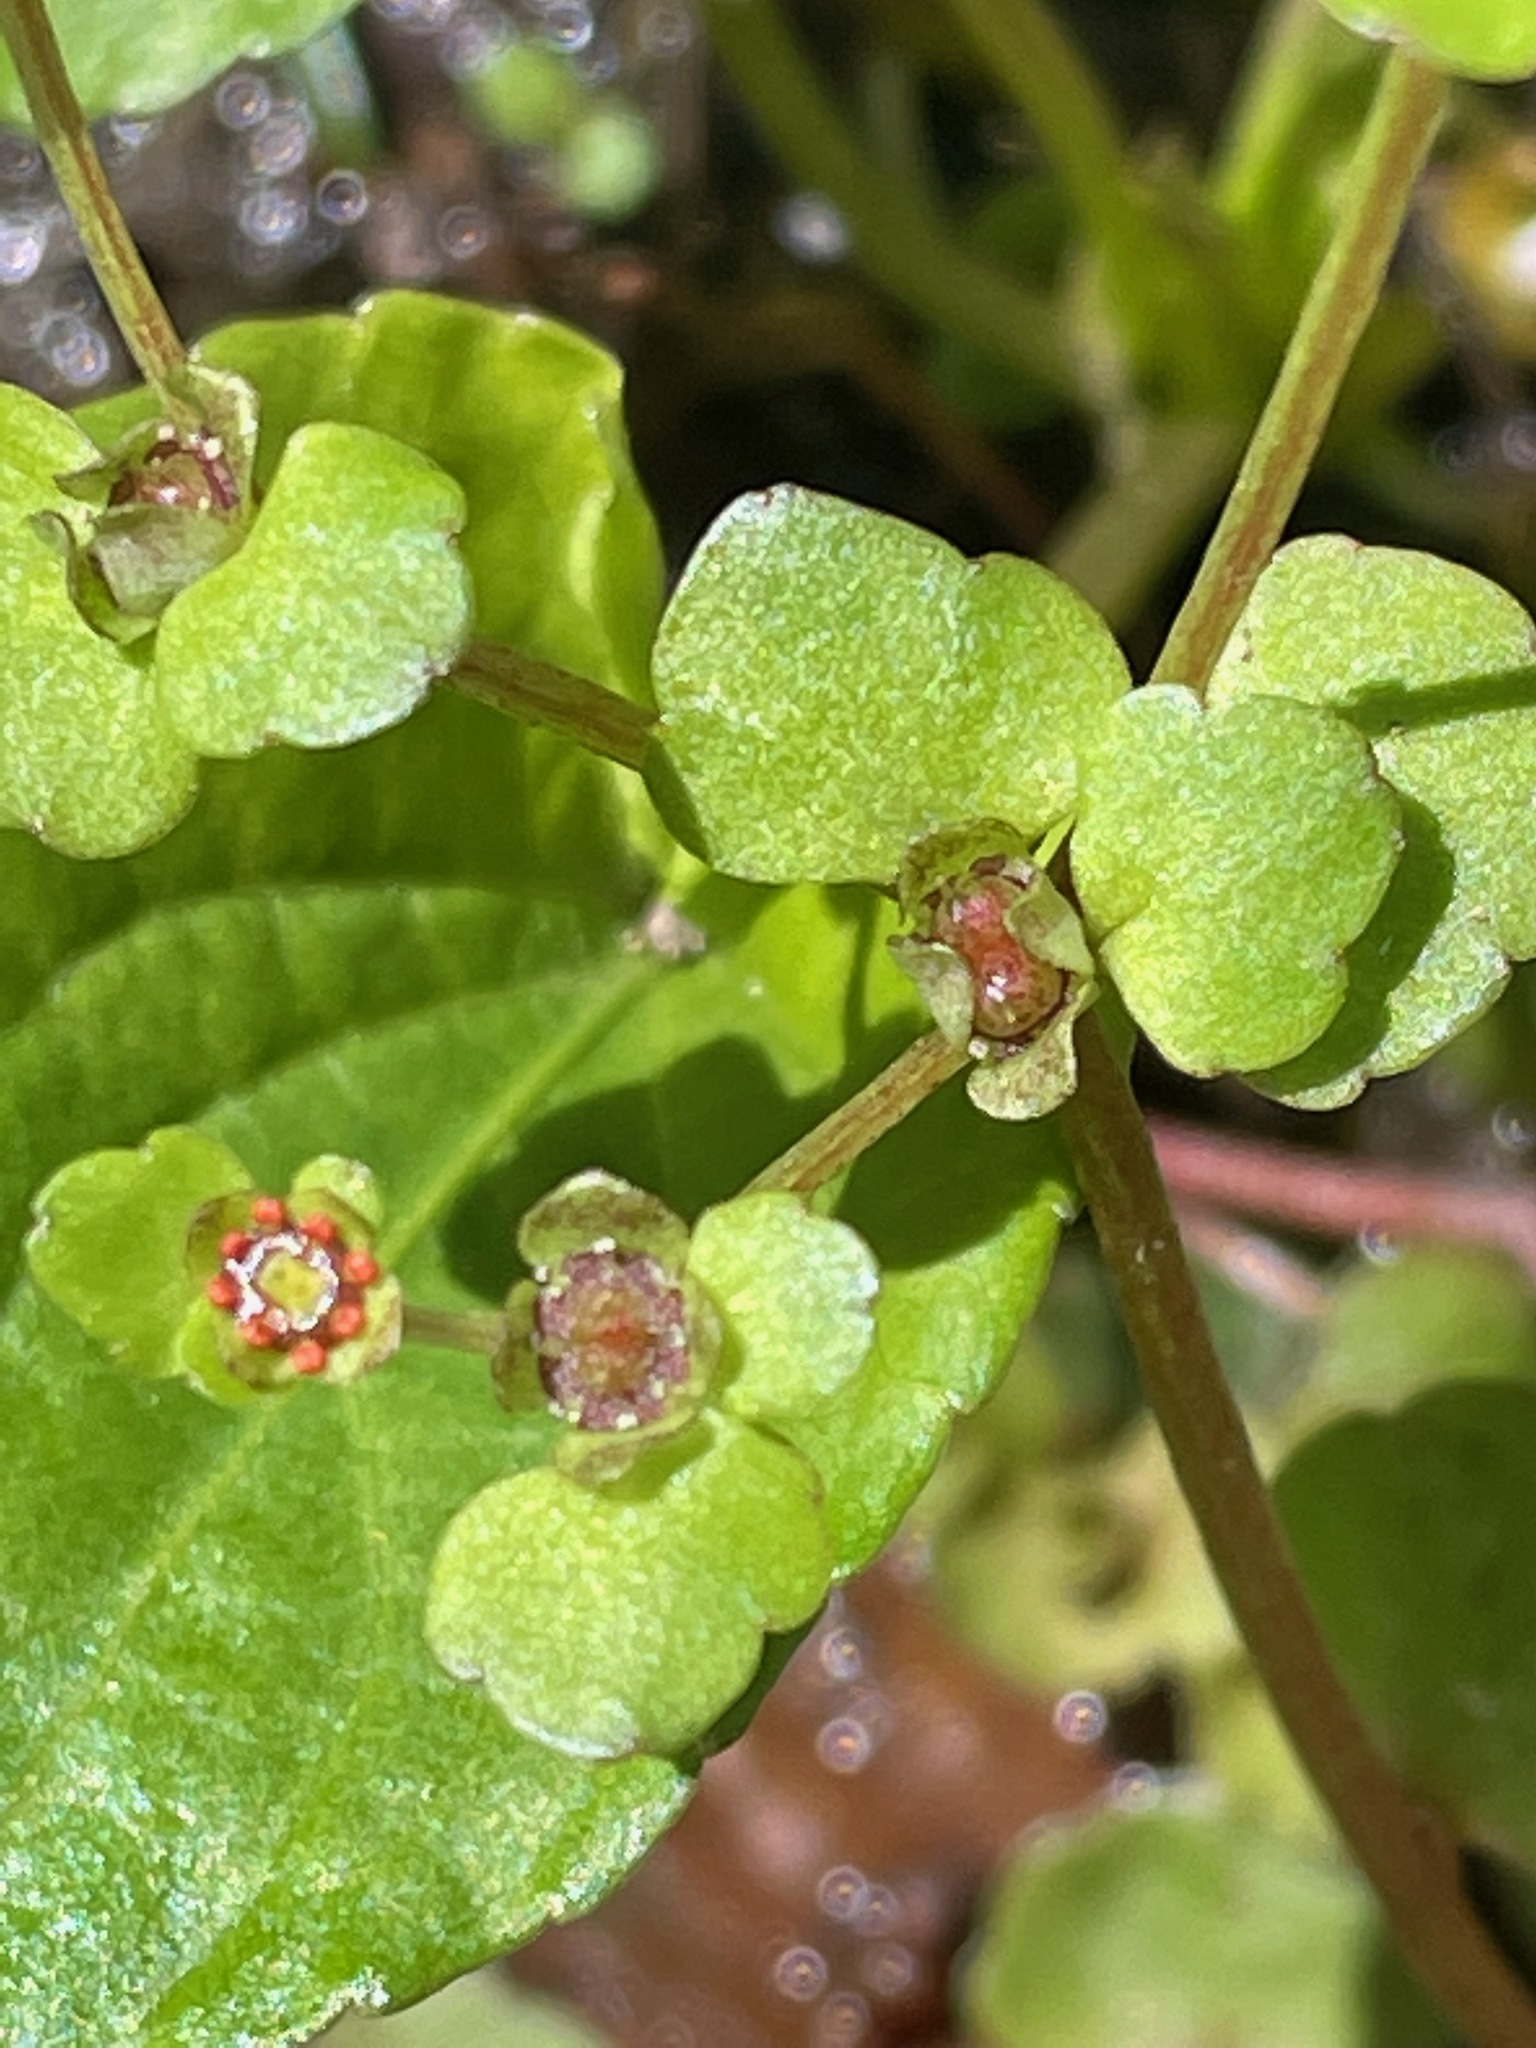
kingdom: Plantae
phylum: Tracheophyta
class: Magnoliopsida
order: Saxifragales
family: Saxifragaceae
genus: Chrysosplenium
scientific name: Chrysosplenium americanum
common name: American golden-saxifrage
